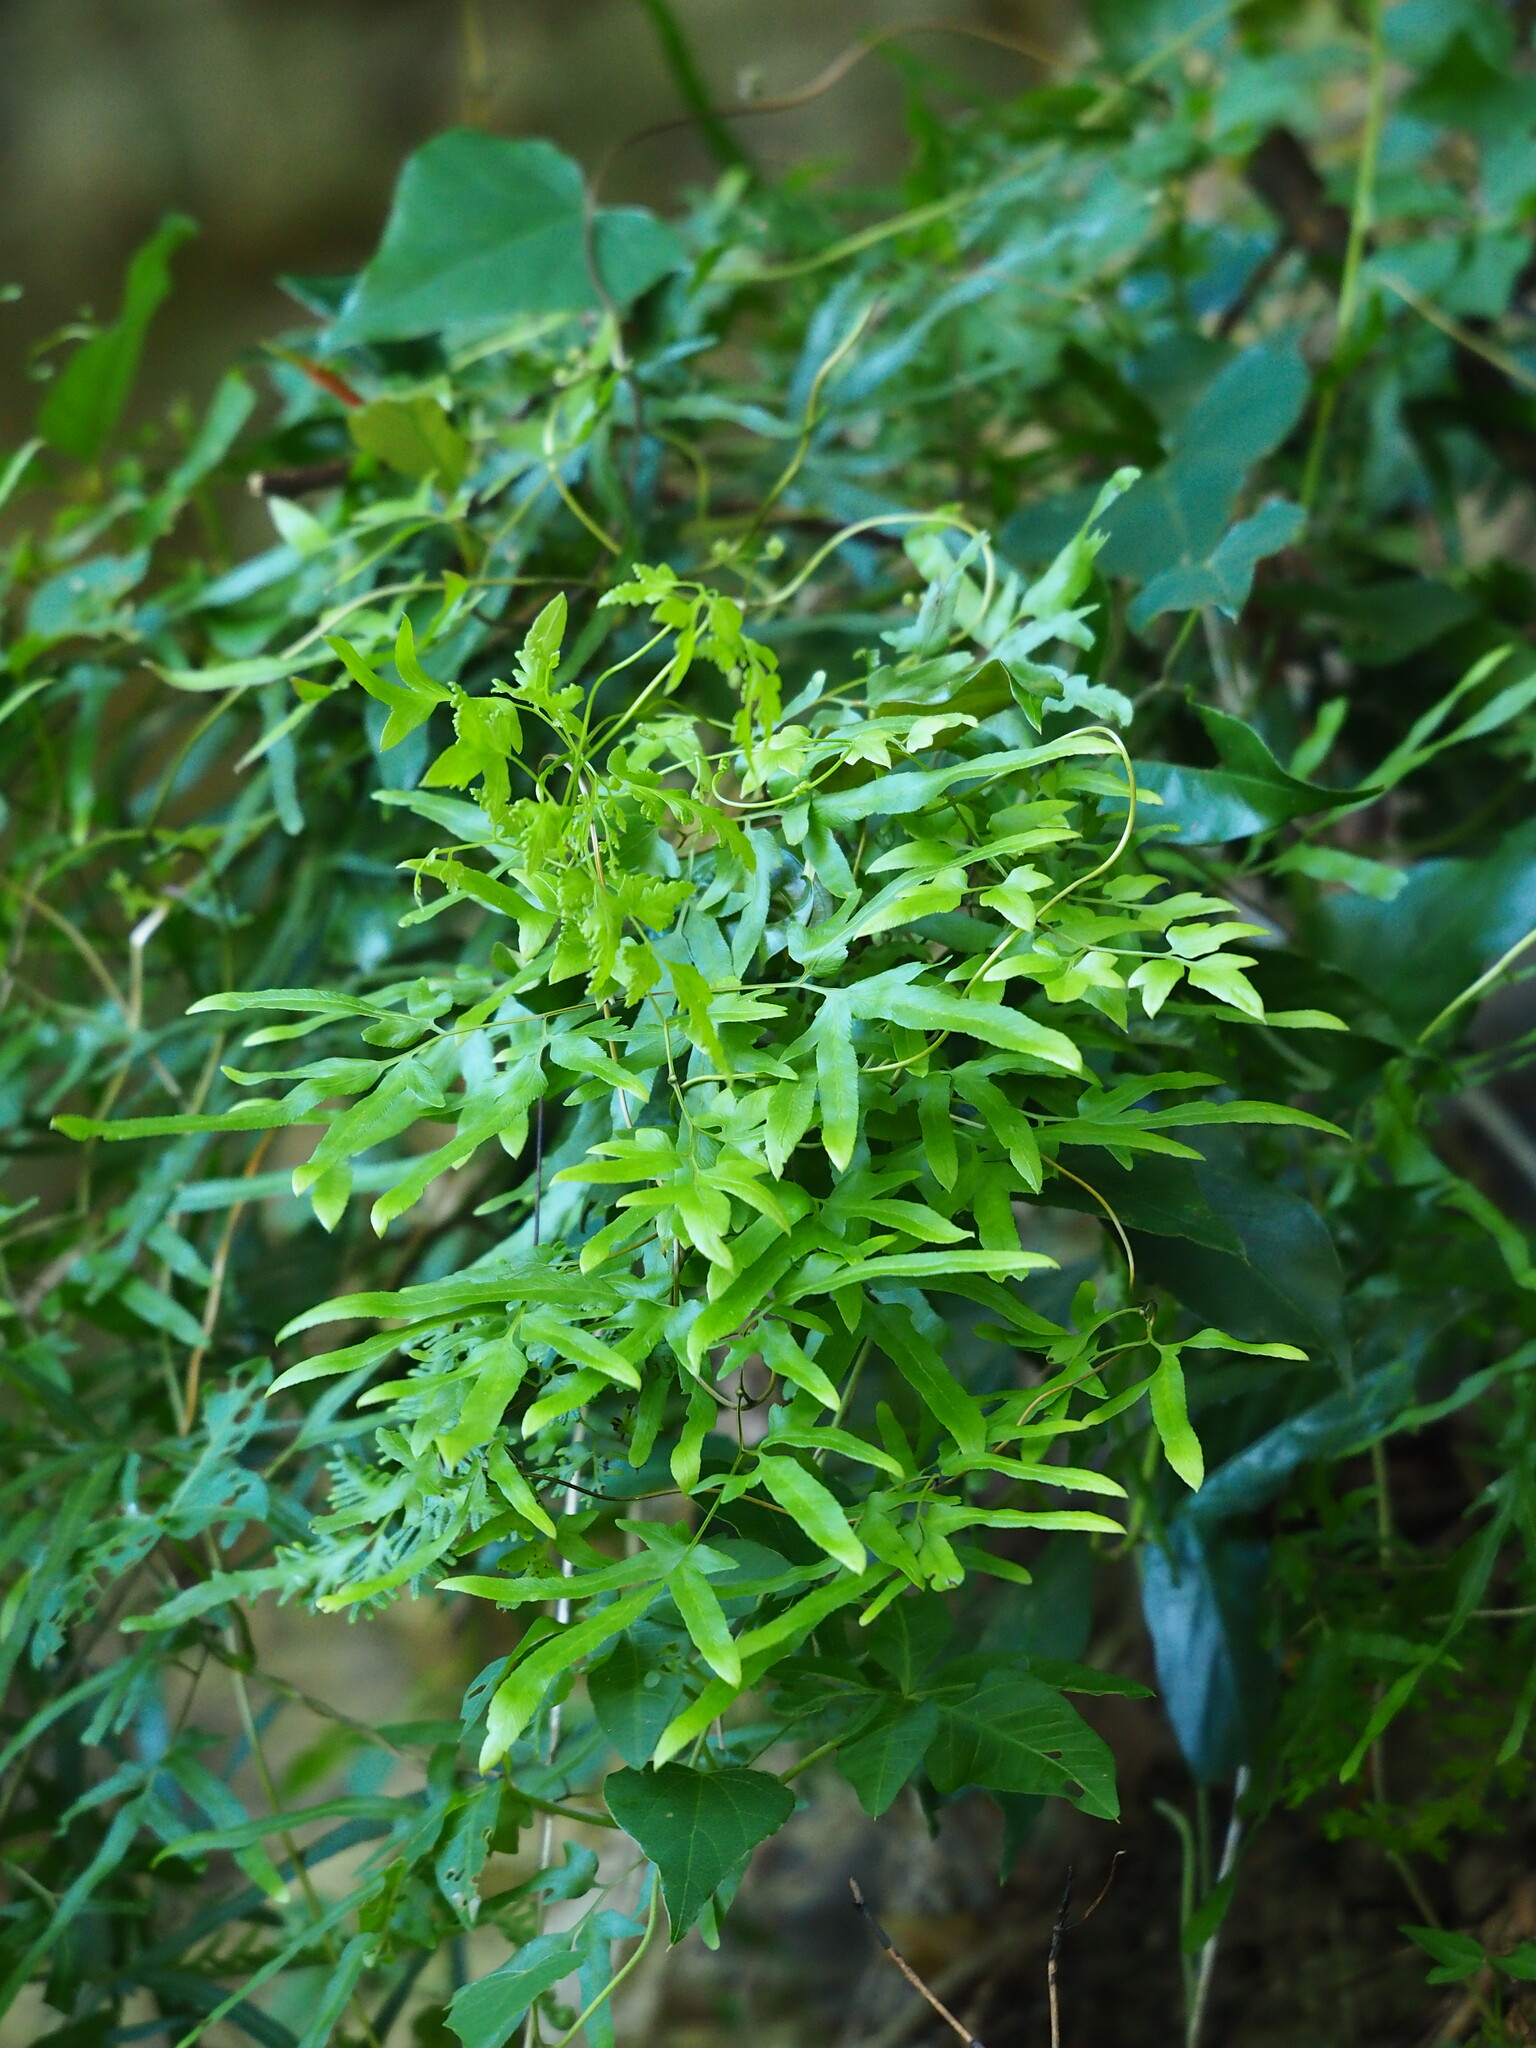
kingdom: Plantae
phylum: Tracheophyta
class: Polypodiopsida
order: Schizaeales
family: Lygodiaceae
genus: Lygodium
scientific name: Lygodium japonicum
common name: Japanese climbing fern
